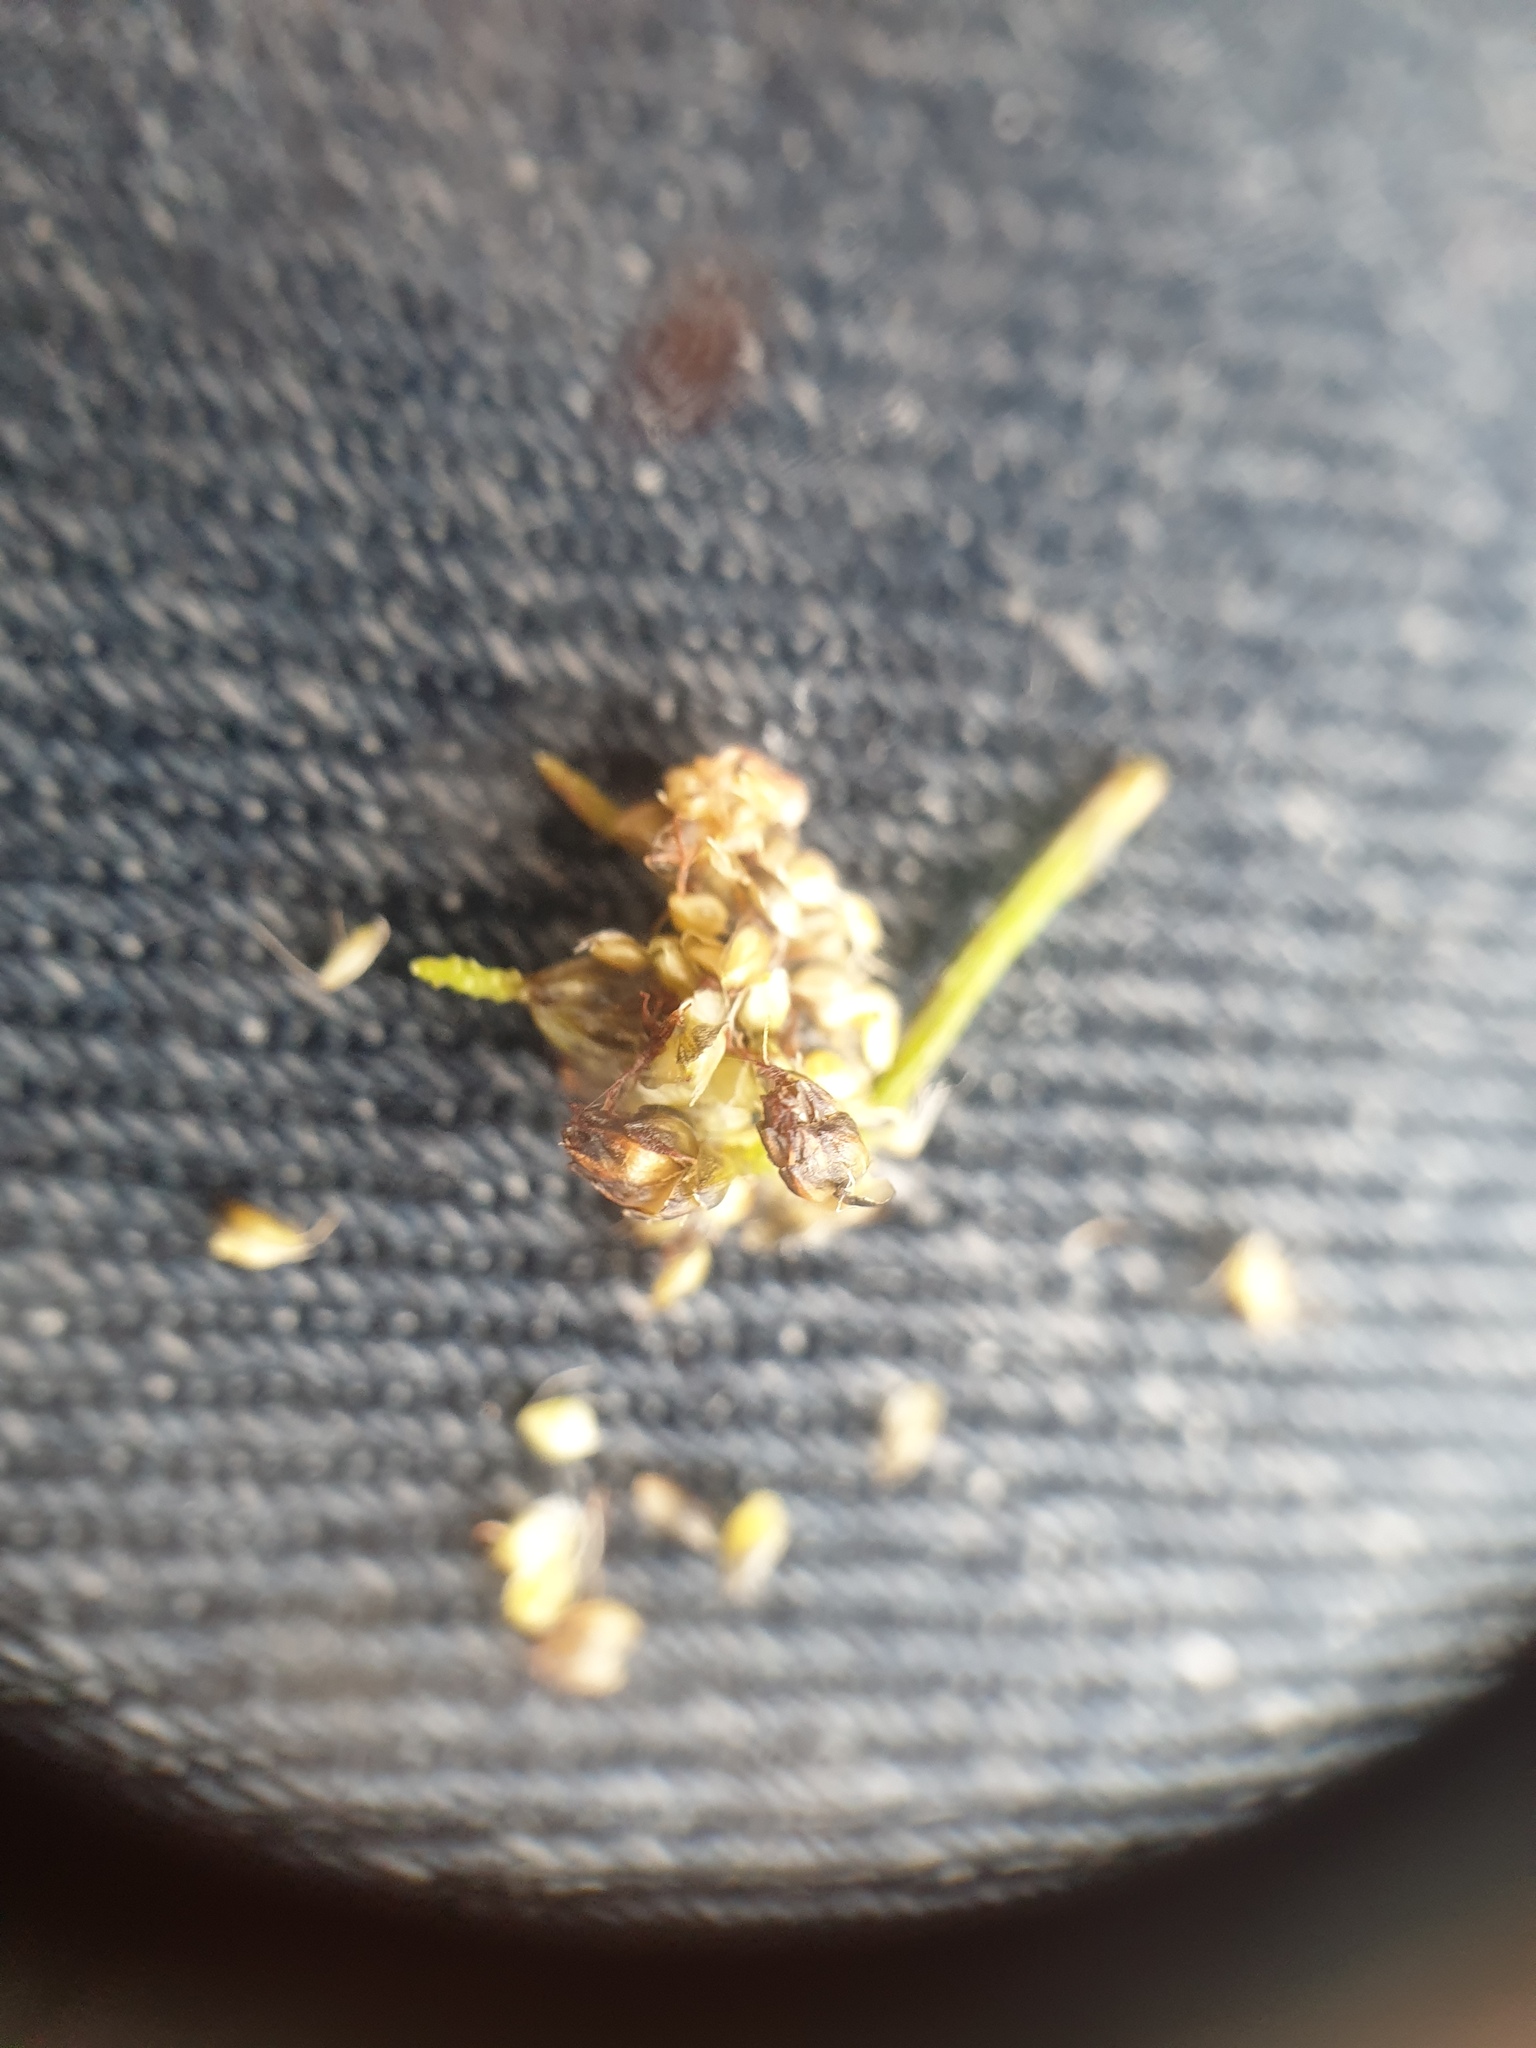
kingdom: Plantae
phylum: Tracheophyta
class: Liliopsida
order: Poales
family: Cyperaceae
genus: Scirpus
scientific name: Scirpus microcarpus
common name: Panicled bulrush
